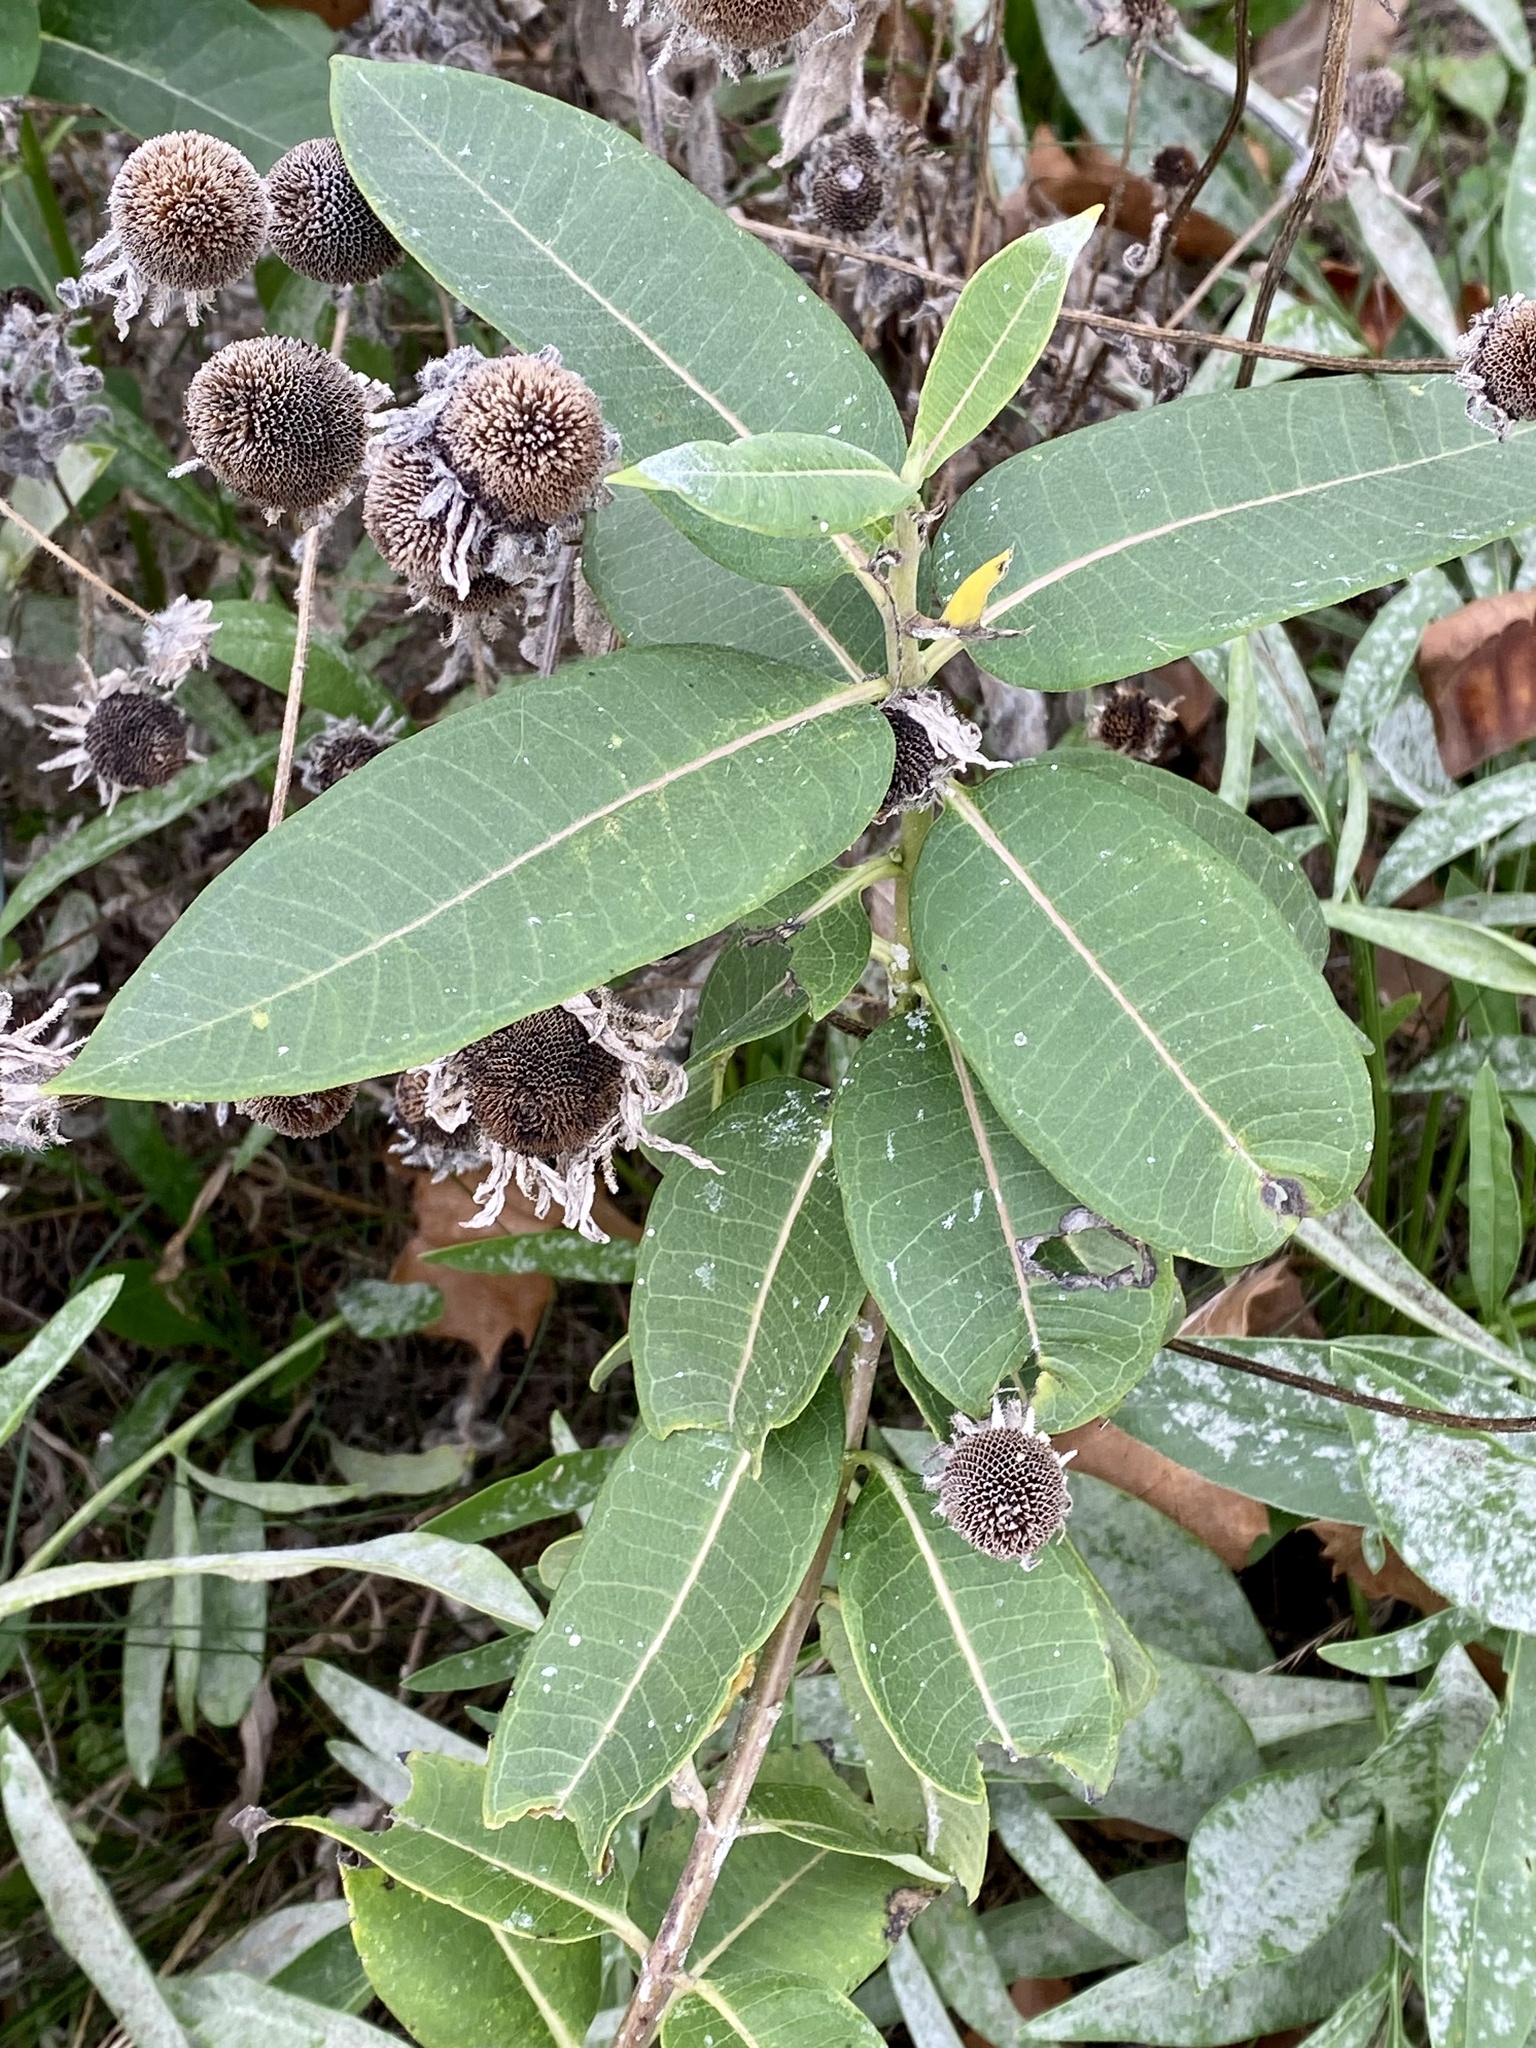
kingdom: Plantae
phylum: Tracheophyta
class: Magnoliopsida
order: Gentianales
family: Apocynaceae
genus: Asclepias
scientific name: Asclepias syriaca
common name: Common milkweed
